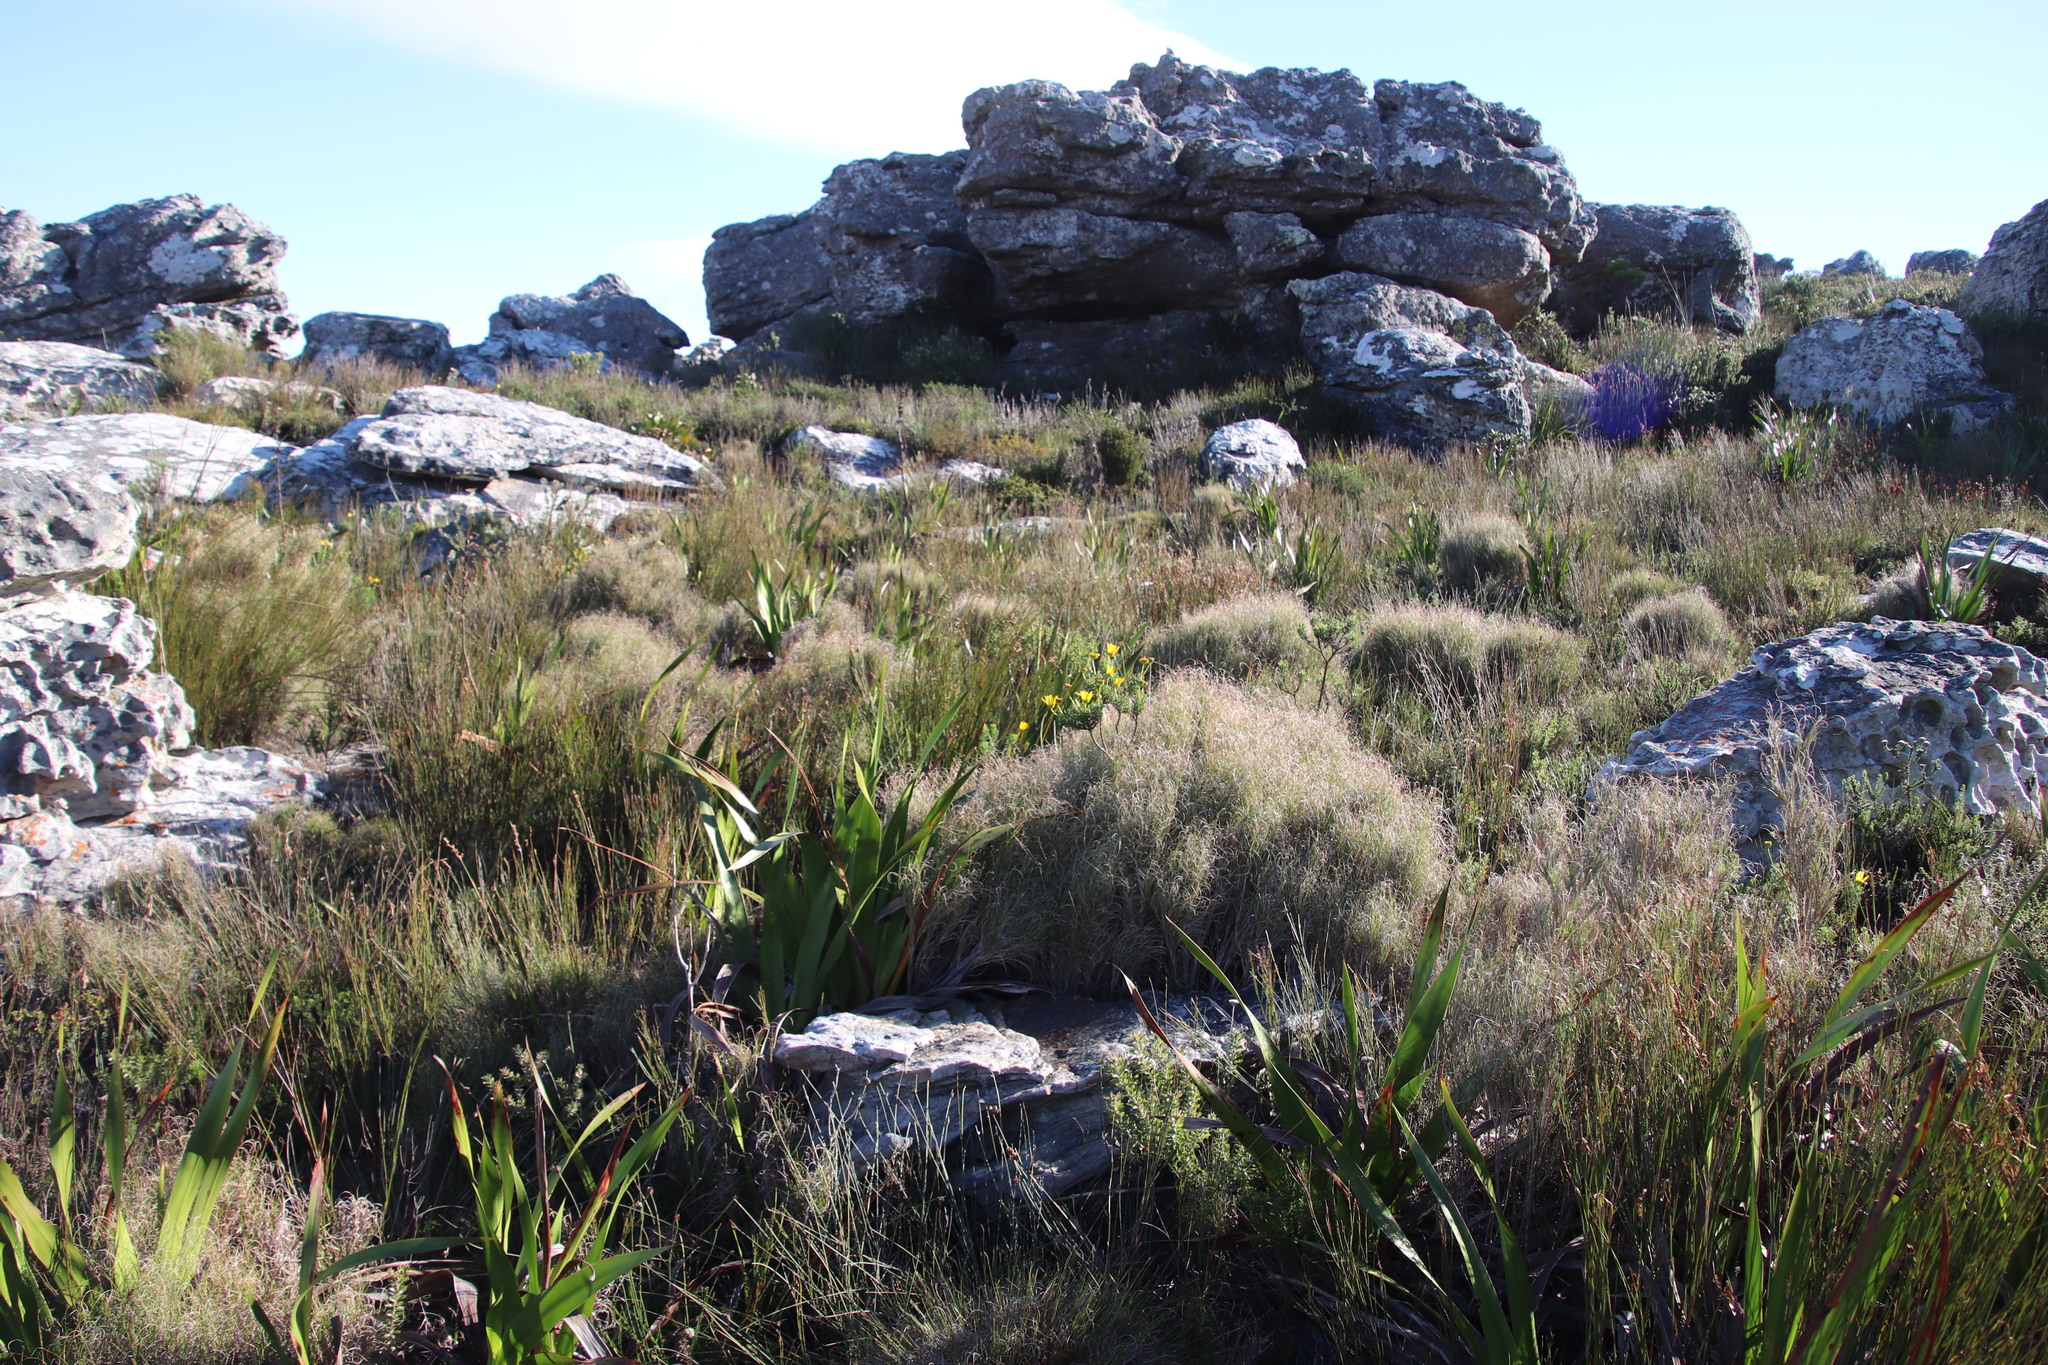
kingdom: Plantae
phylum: Tracheophyta
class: Liliopsida
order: Poales
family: Poaceae
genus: Pseudopentameris
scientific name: Pseudopentameris macrantha
